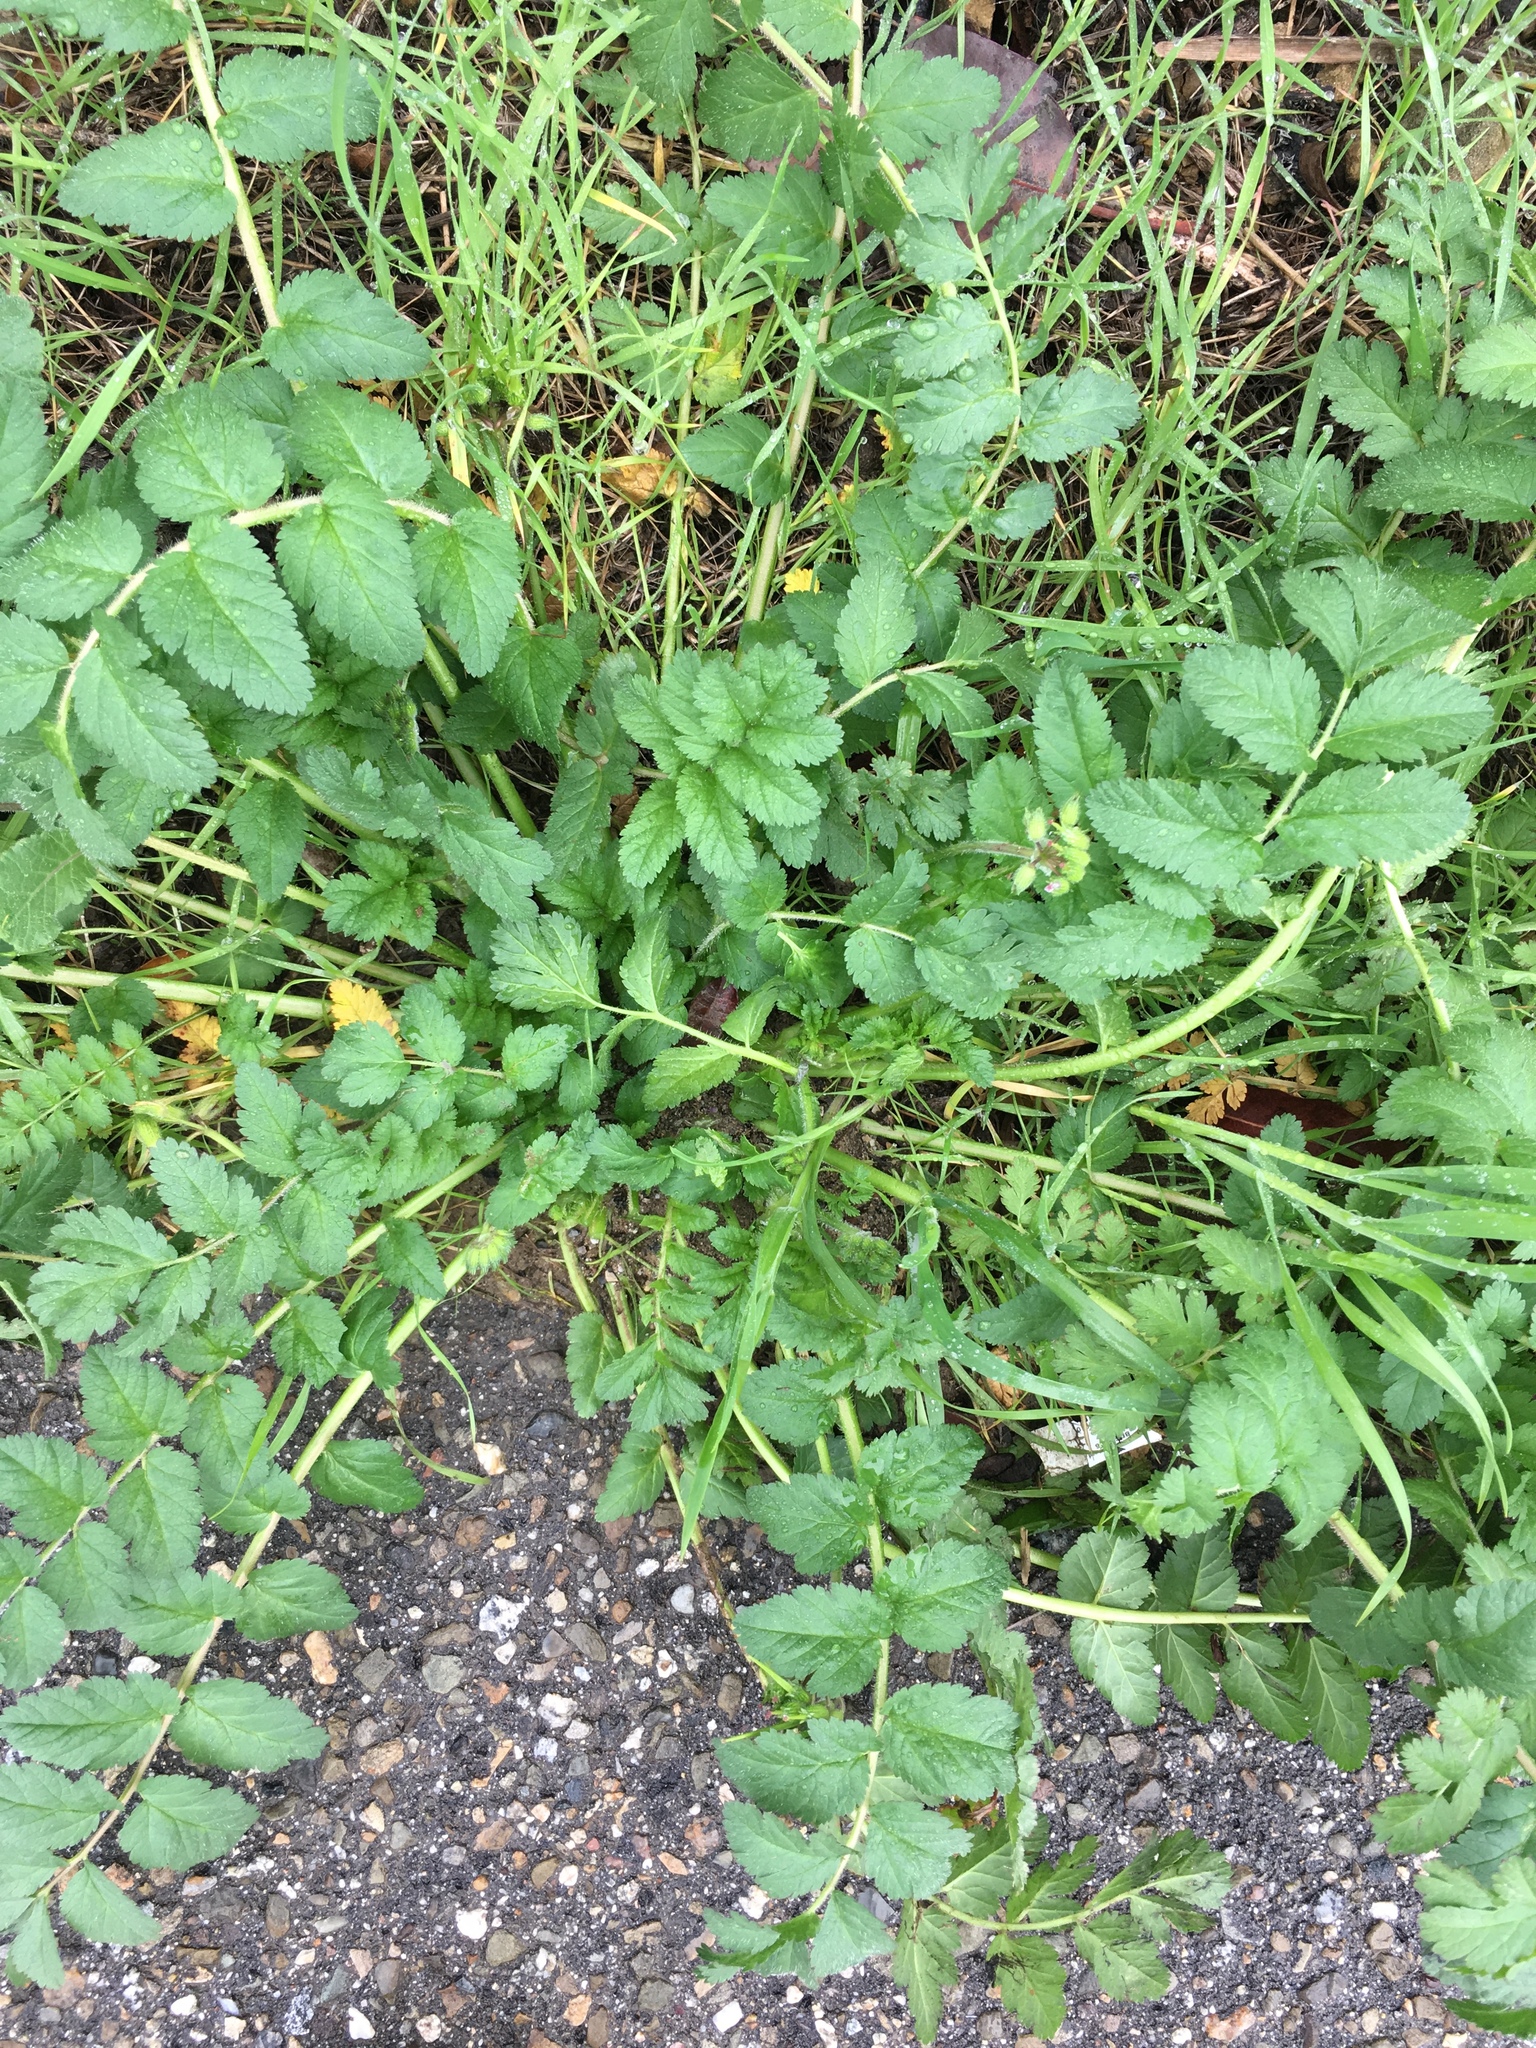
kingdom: Plantae
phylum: Tracheophyta
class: Magnoliopsida
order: Geraniales
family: Geraniaceae
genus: Erodium
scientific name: Erodium moschatum
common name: Musk stork's-bill
